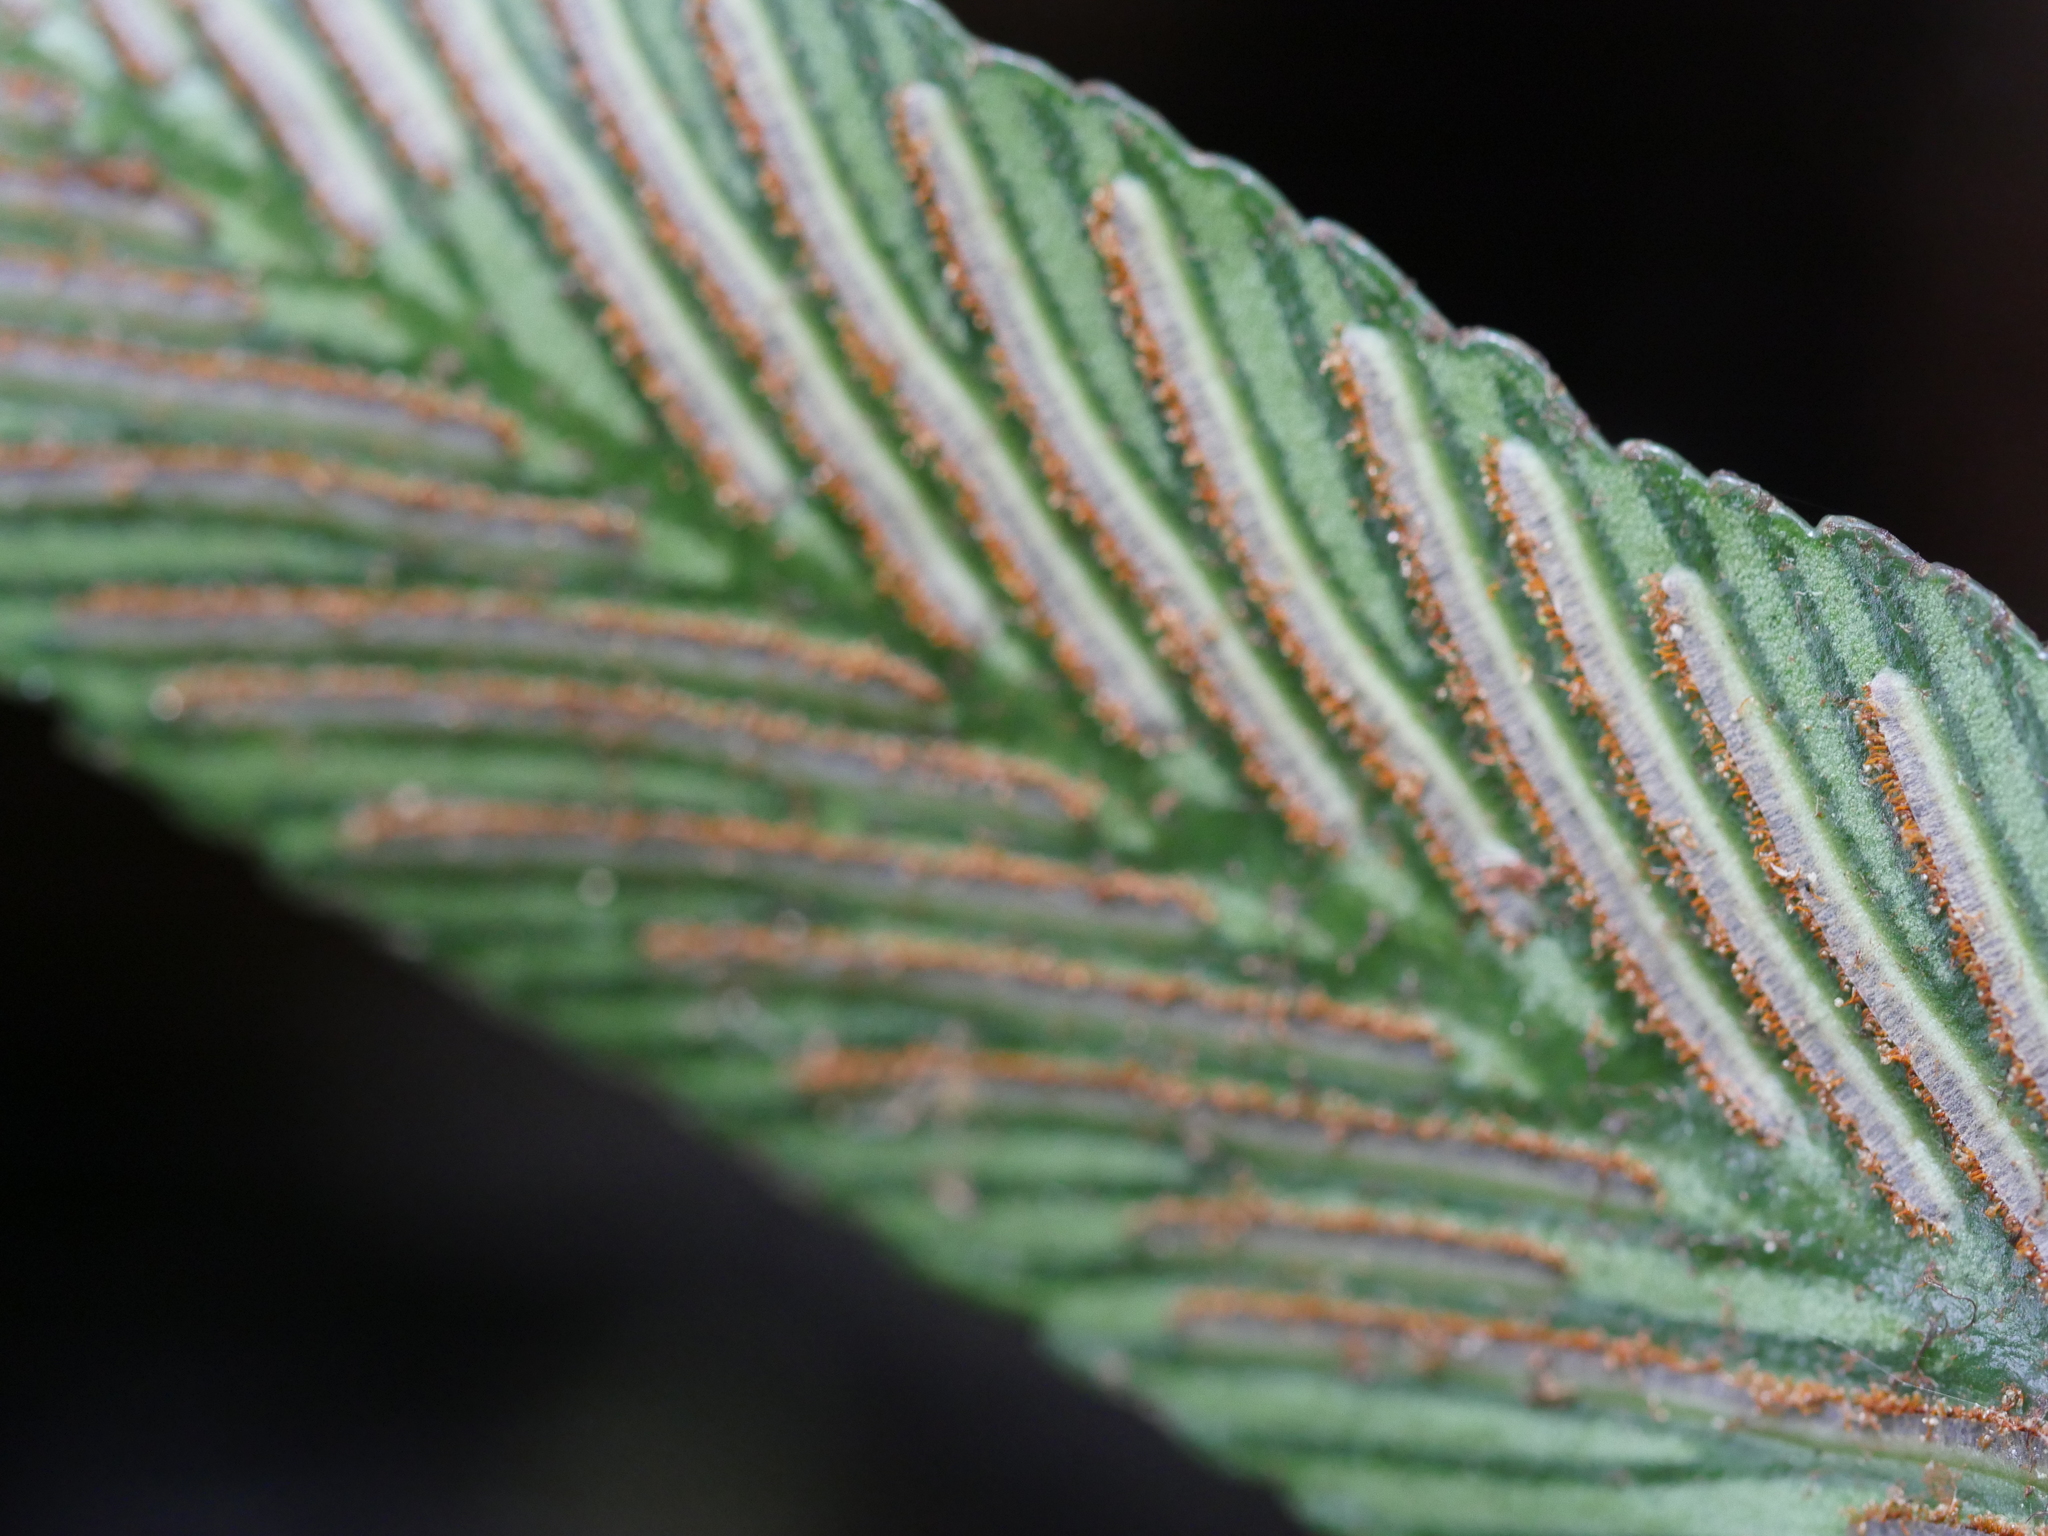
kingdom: Plantae
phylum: Tracheophyta
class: Polypodiopsida
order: Polypodiales
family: Aspleniaceae
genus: Asplenium
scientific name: Asplenium oblongifolium
